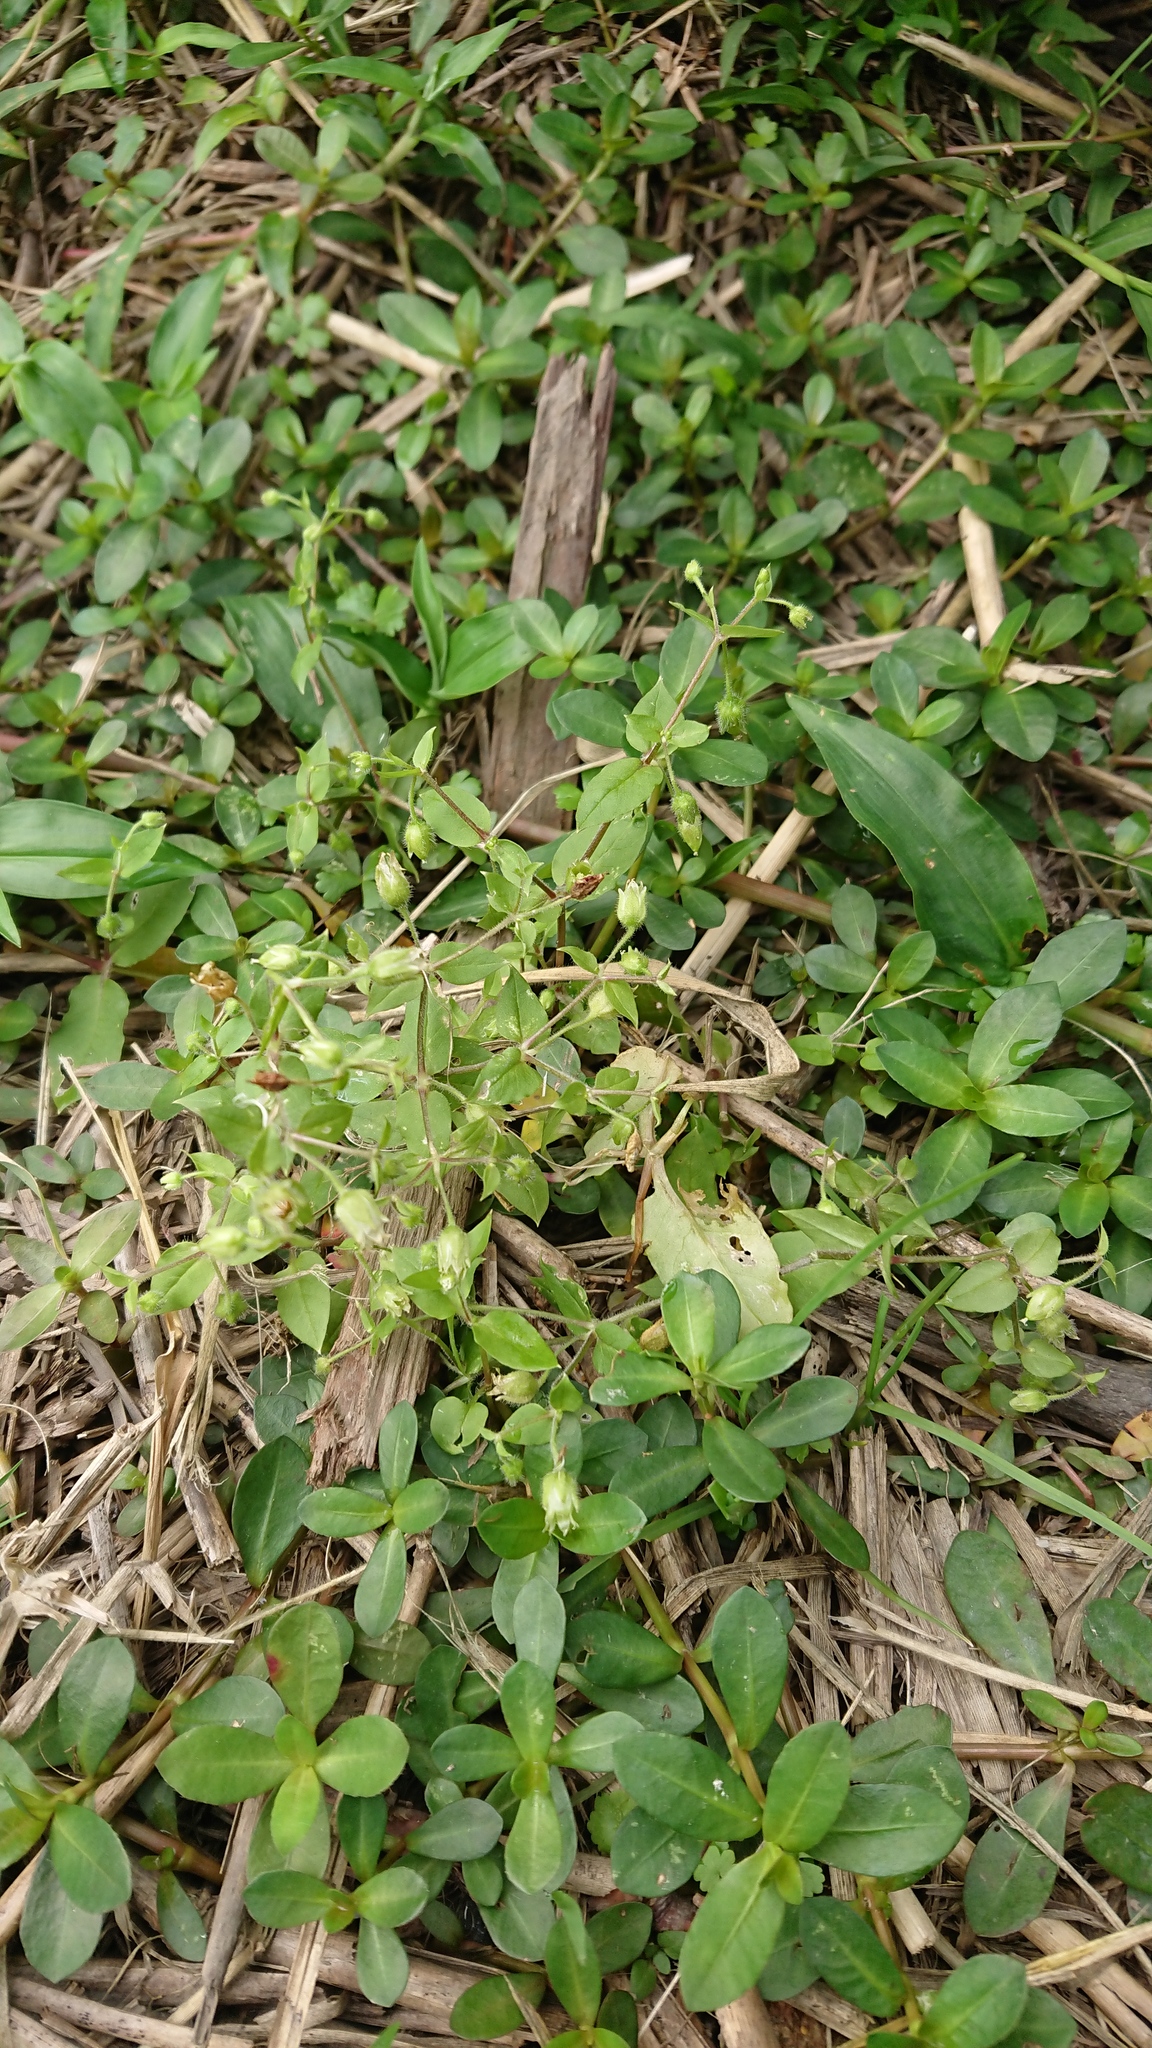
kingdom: Plantae
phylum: Tracheophyta
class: Magnoliopsida
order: Caryophyllales
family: Caryophyllaceae
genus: Stellaria
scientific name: Stellaria aquatica
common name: Water chickweed
